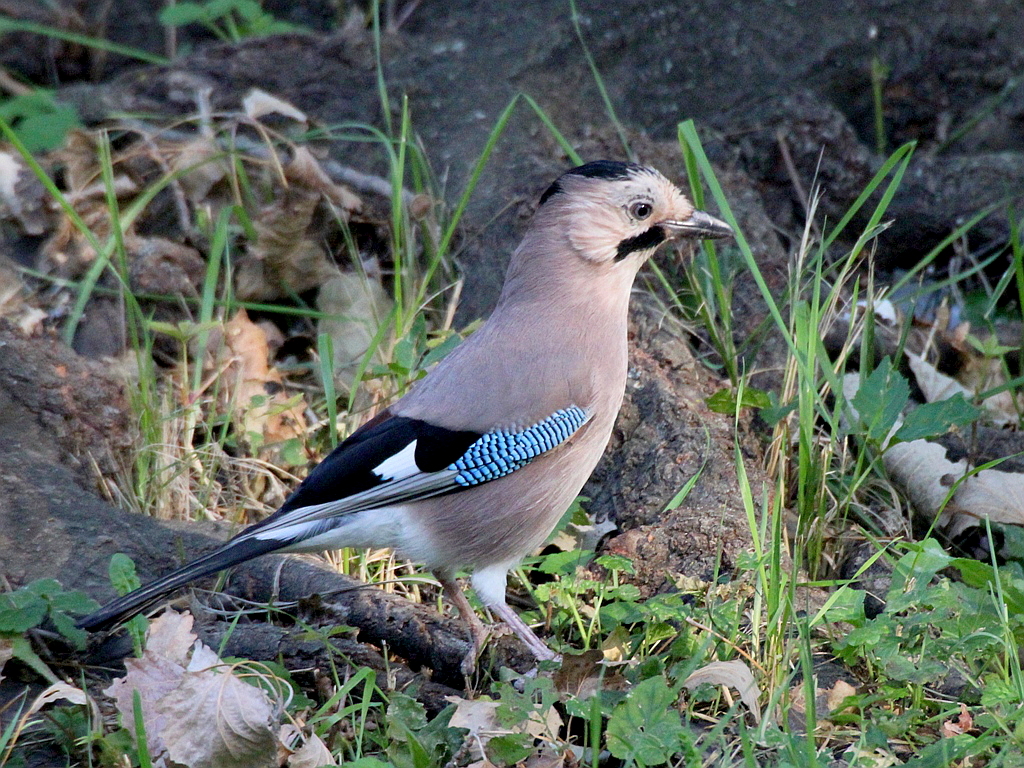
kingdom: Animalia
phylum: Chordata
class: Aves
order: Passeriformes
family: Corvidae
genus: Garrulus
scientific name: Garrulus glandarius
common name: Eurasian jay
